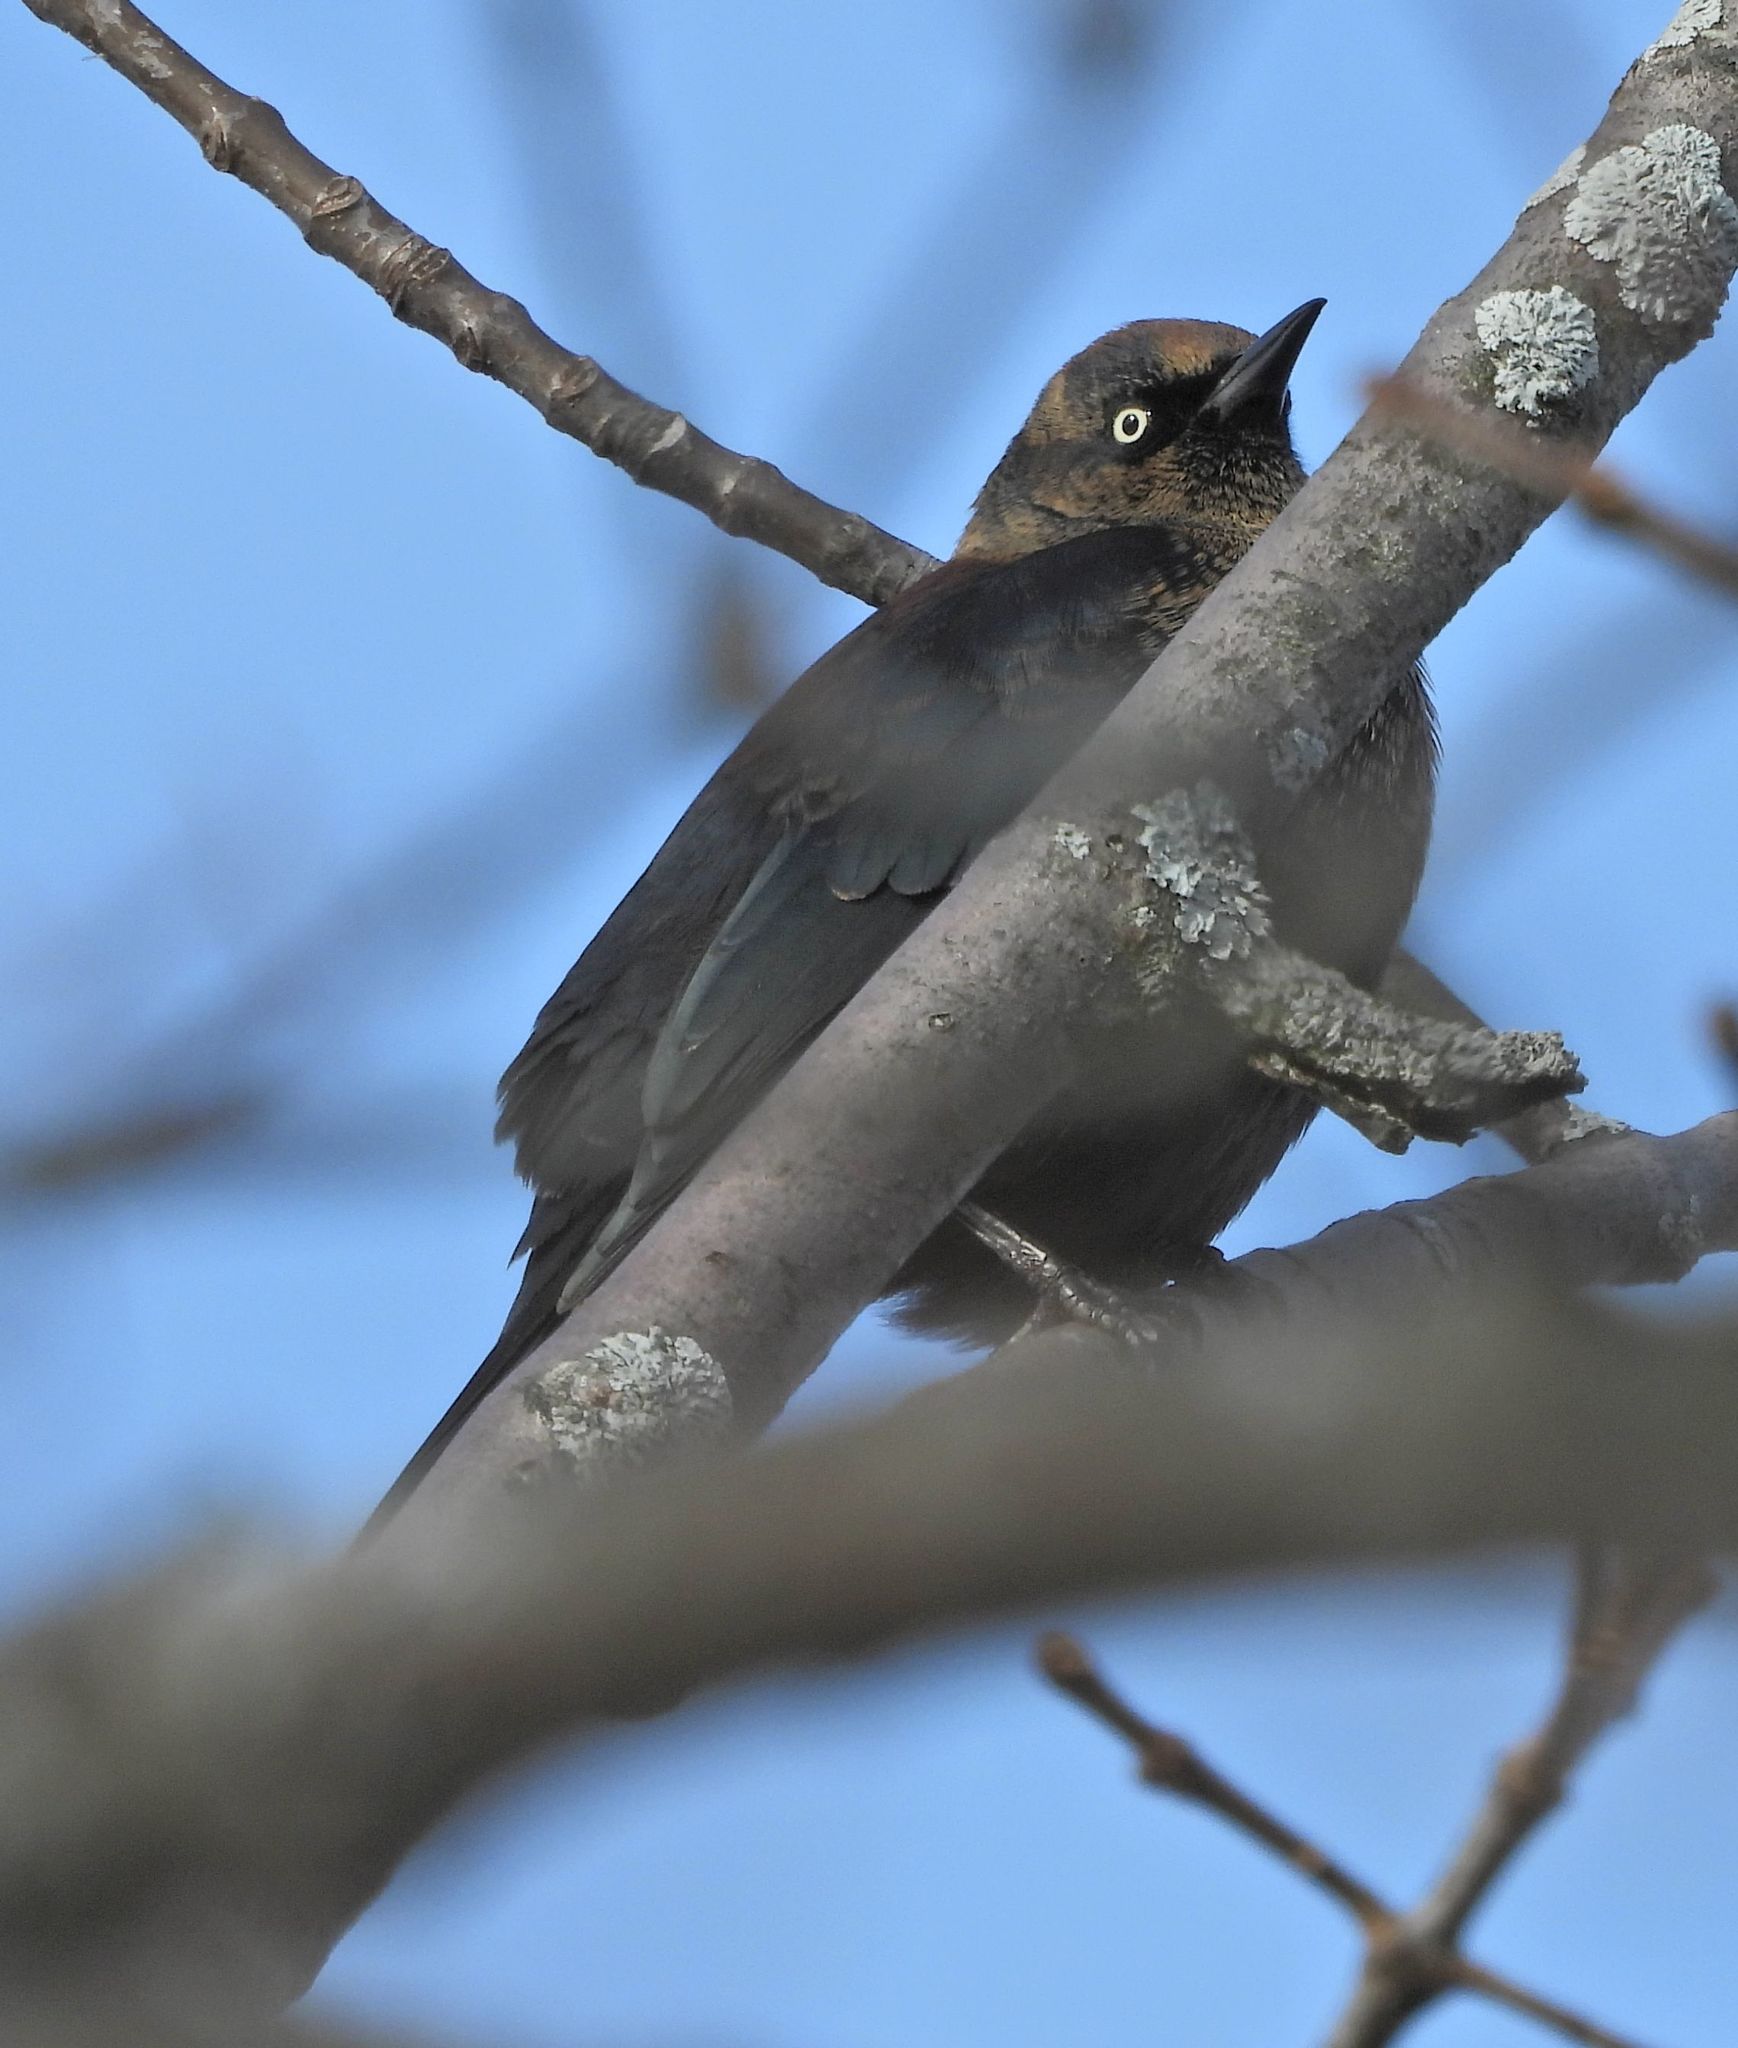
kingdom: Animalia
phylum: Chordata
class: Aves
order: Passeriformes
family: Icteridae
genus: Euphagus
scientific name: Euphagus carolinus
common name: Rusty blackbird
